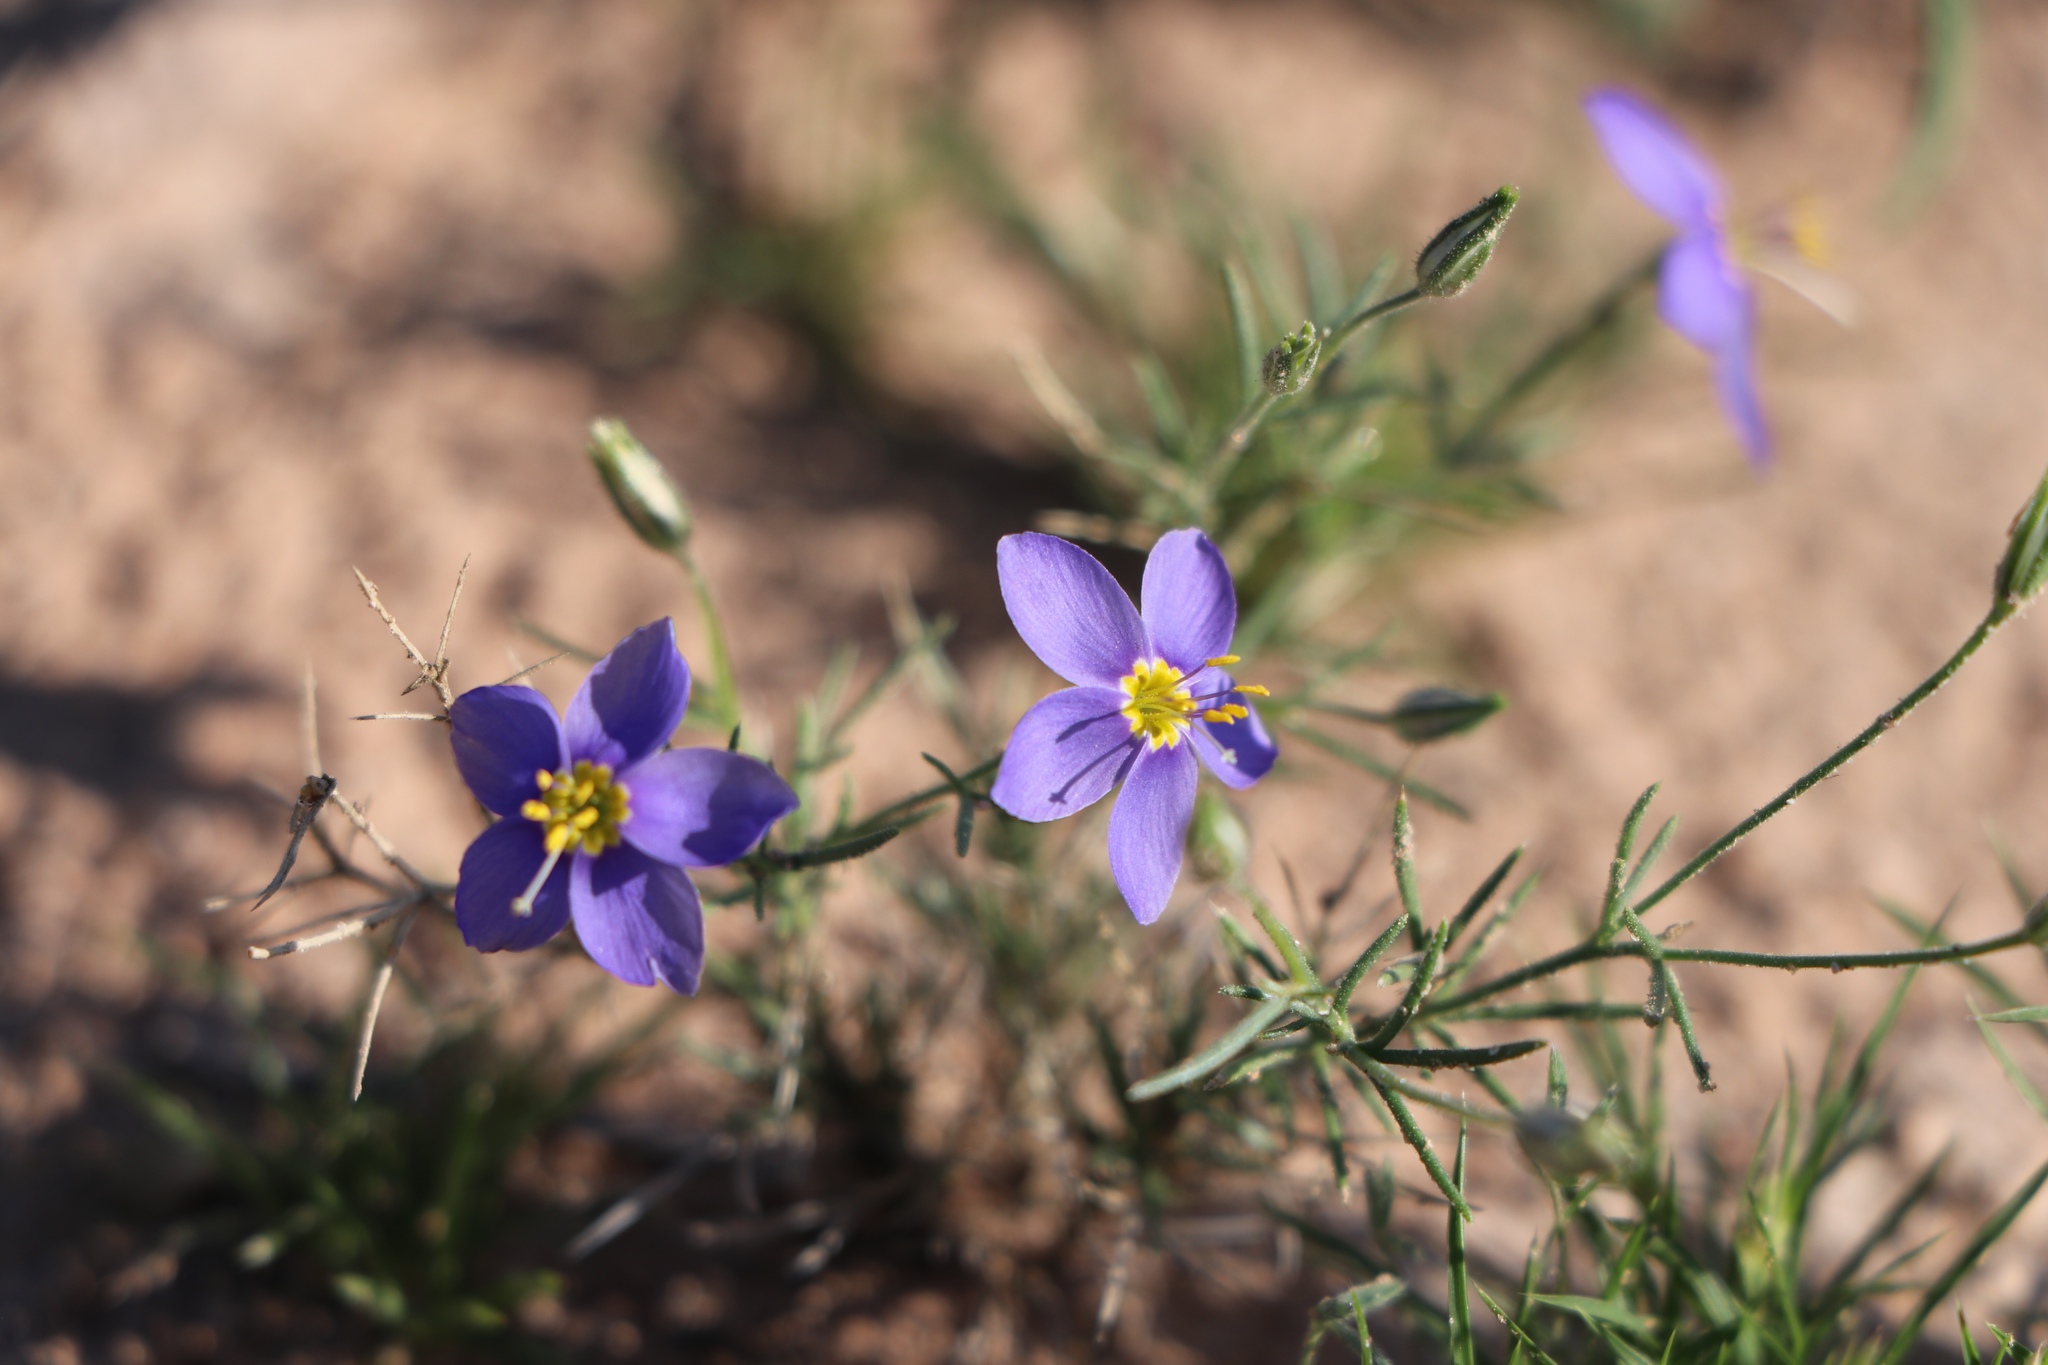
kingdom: Plantae
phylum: Tracheophyta
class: Magnoliopsida
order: Ericales
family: Polemoniaceae
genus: Giliastrum
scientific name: Giliastrum acerosum
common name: Bluebowls
